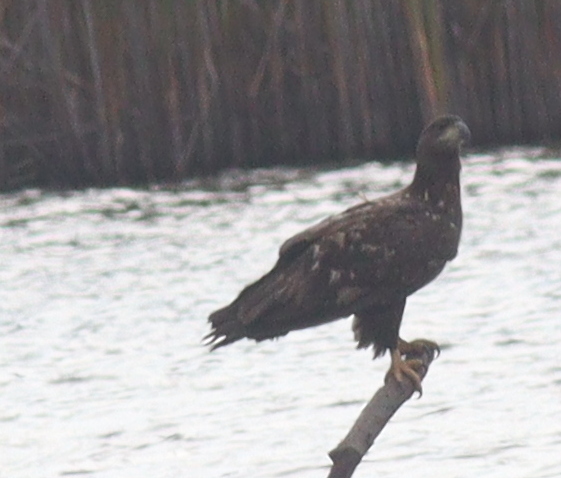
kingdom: Animalia
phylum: Chordata
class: Aves
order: Accipitriformes
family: Accipitridae
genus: Haliaeetus
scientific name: Haliaeetus albicilla
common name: White-tailed eagle
